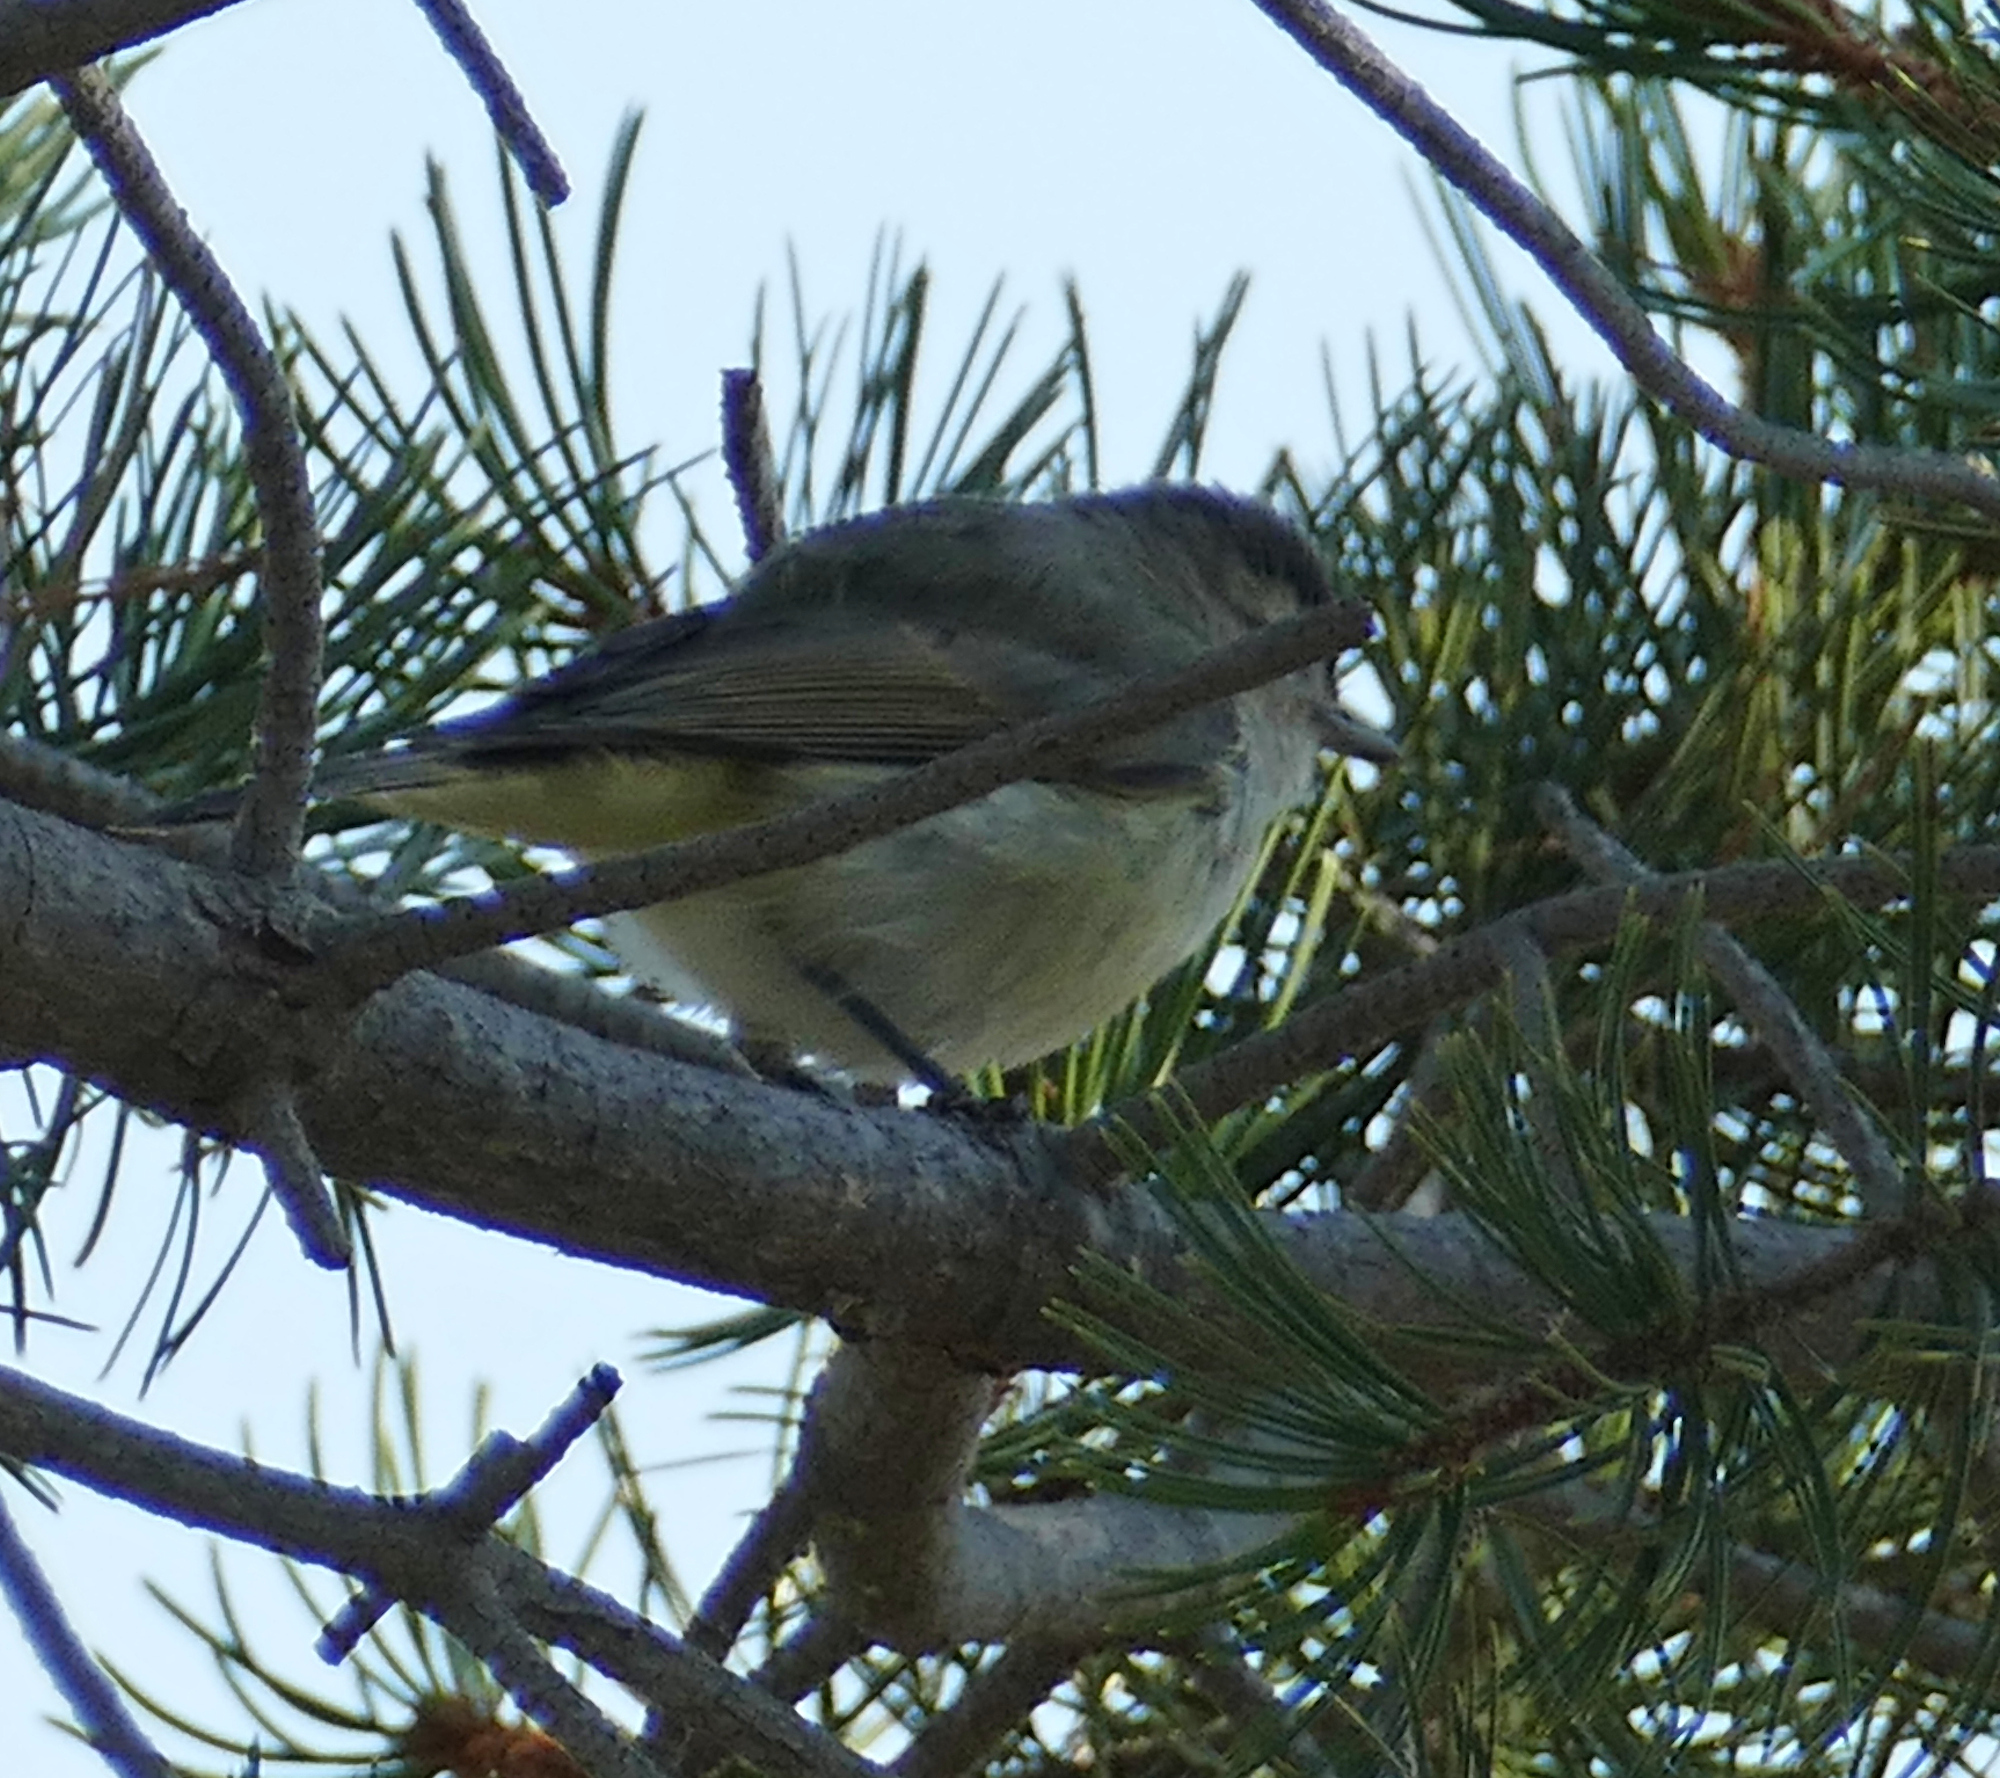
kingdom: Animalia
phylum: Chordata
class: Aves
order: Passeriformes
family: Vireonidae
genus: Vireo
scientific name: Vireo gilvus
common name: Warbling vireo
